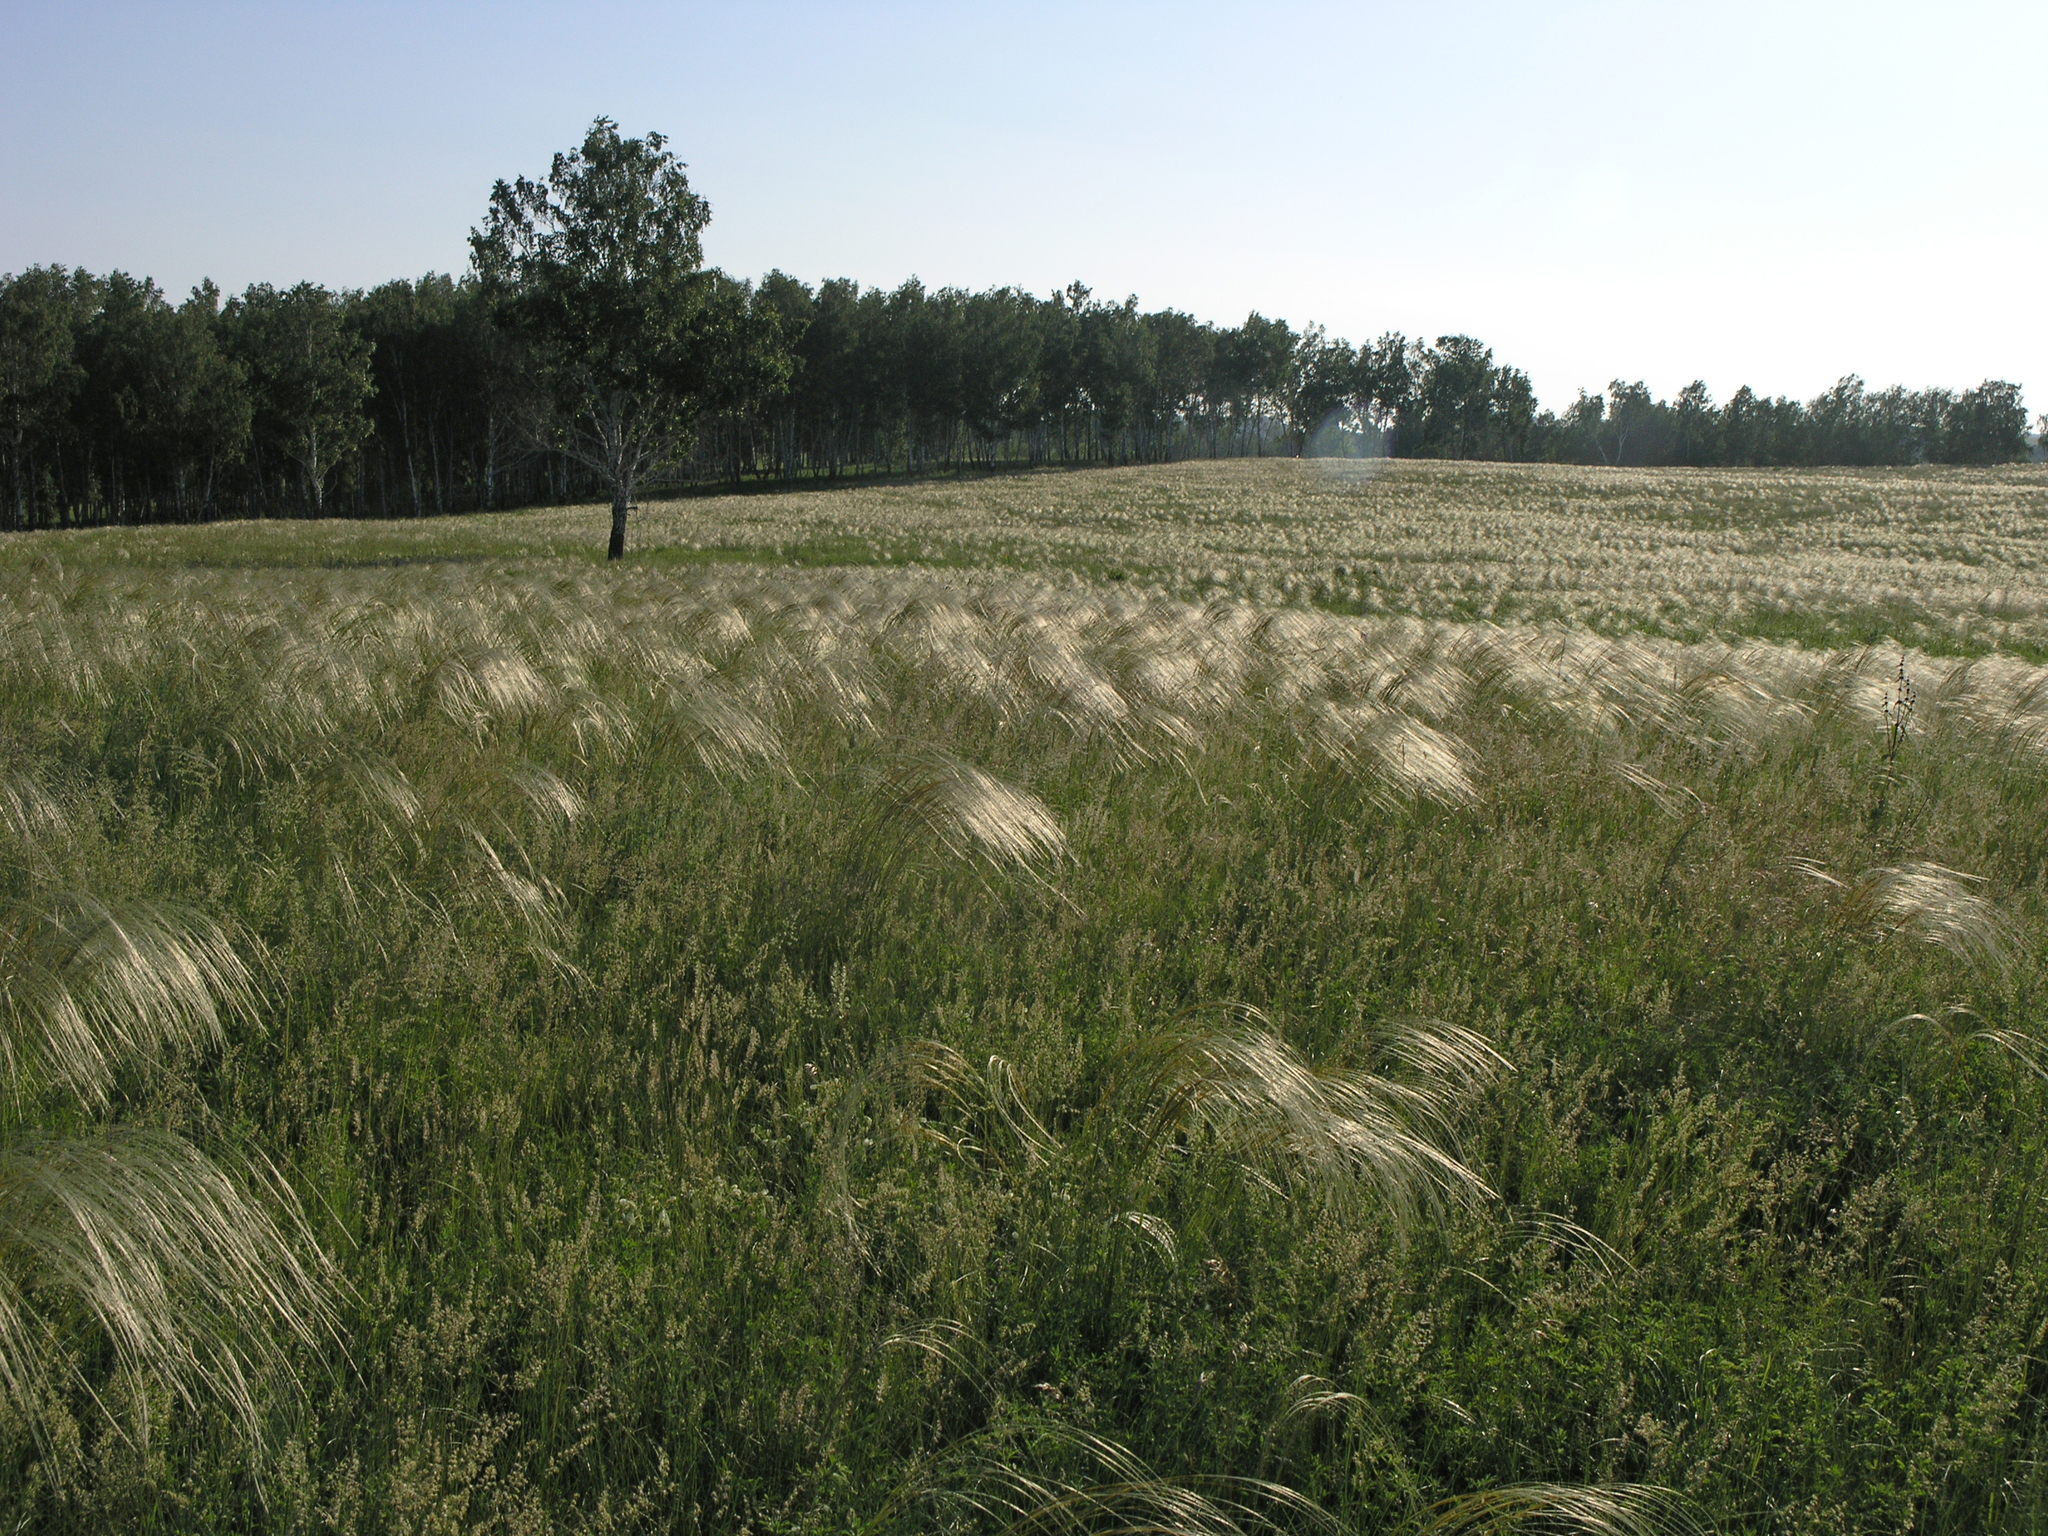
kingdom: Plantae
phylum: Tracheophyta
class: Liliopsida
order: Poales
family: Poaceae
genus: Stipa
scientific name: Stipa pennata
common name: European feather grass
